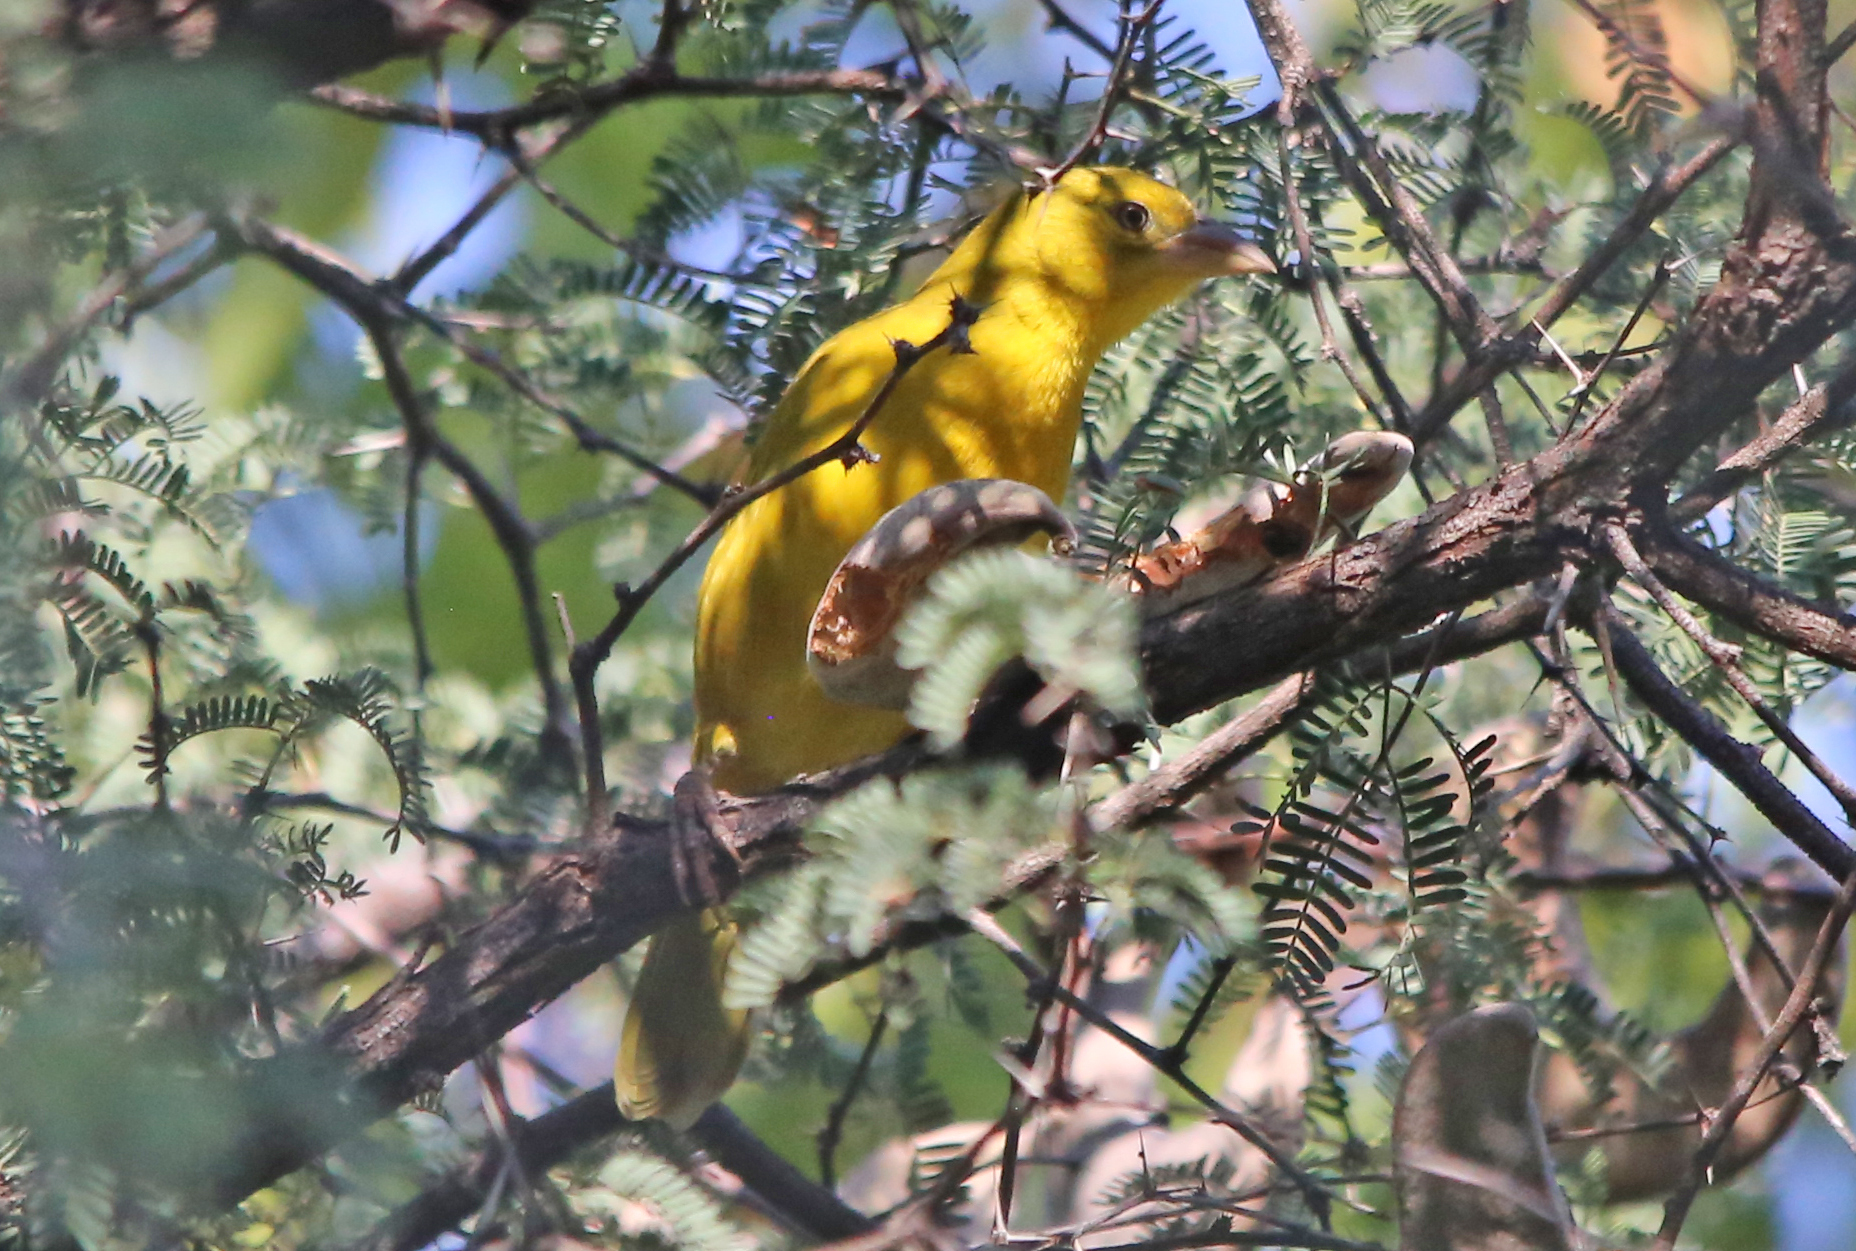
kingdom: Animalia
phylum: Chordata
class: Aves
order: Passeriformes
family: Ploceidae
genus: Ploceus
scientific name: Ploceus xanthops
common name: Holub's golden weaver
